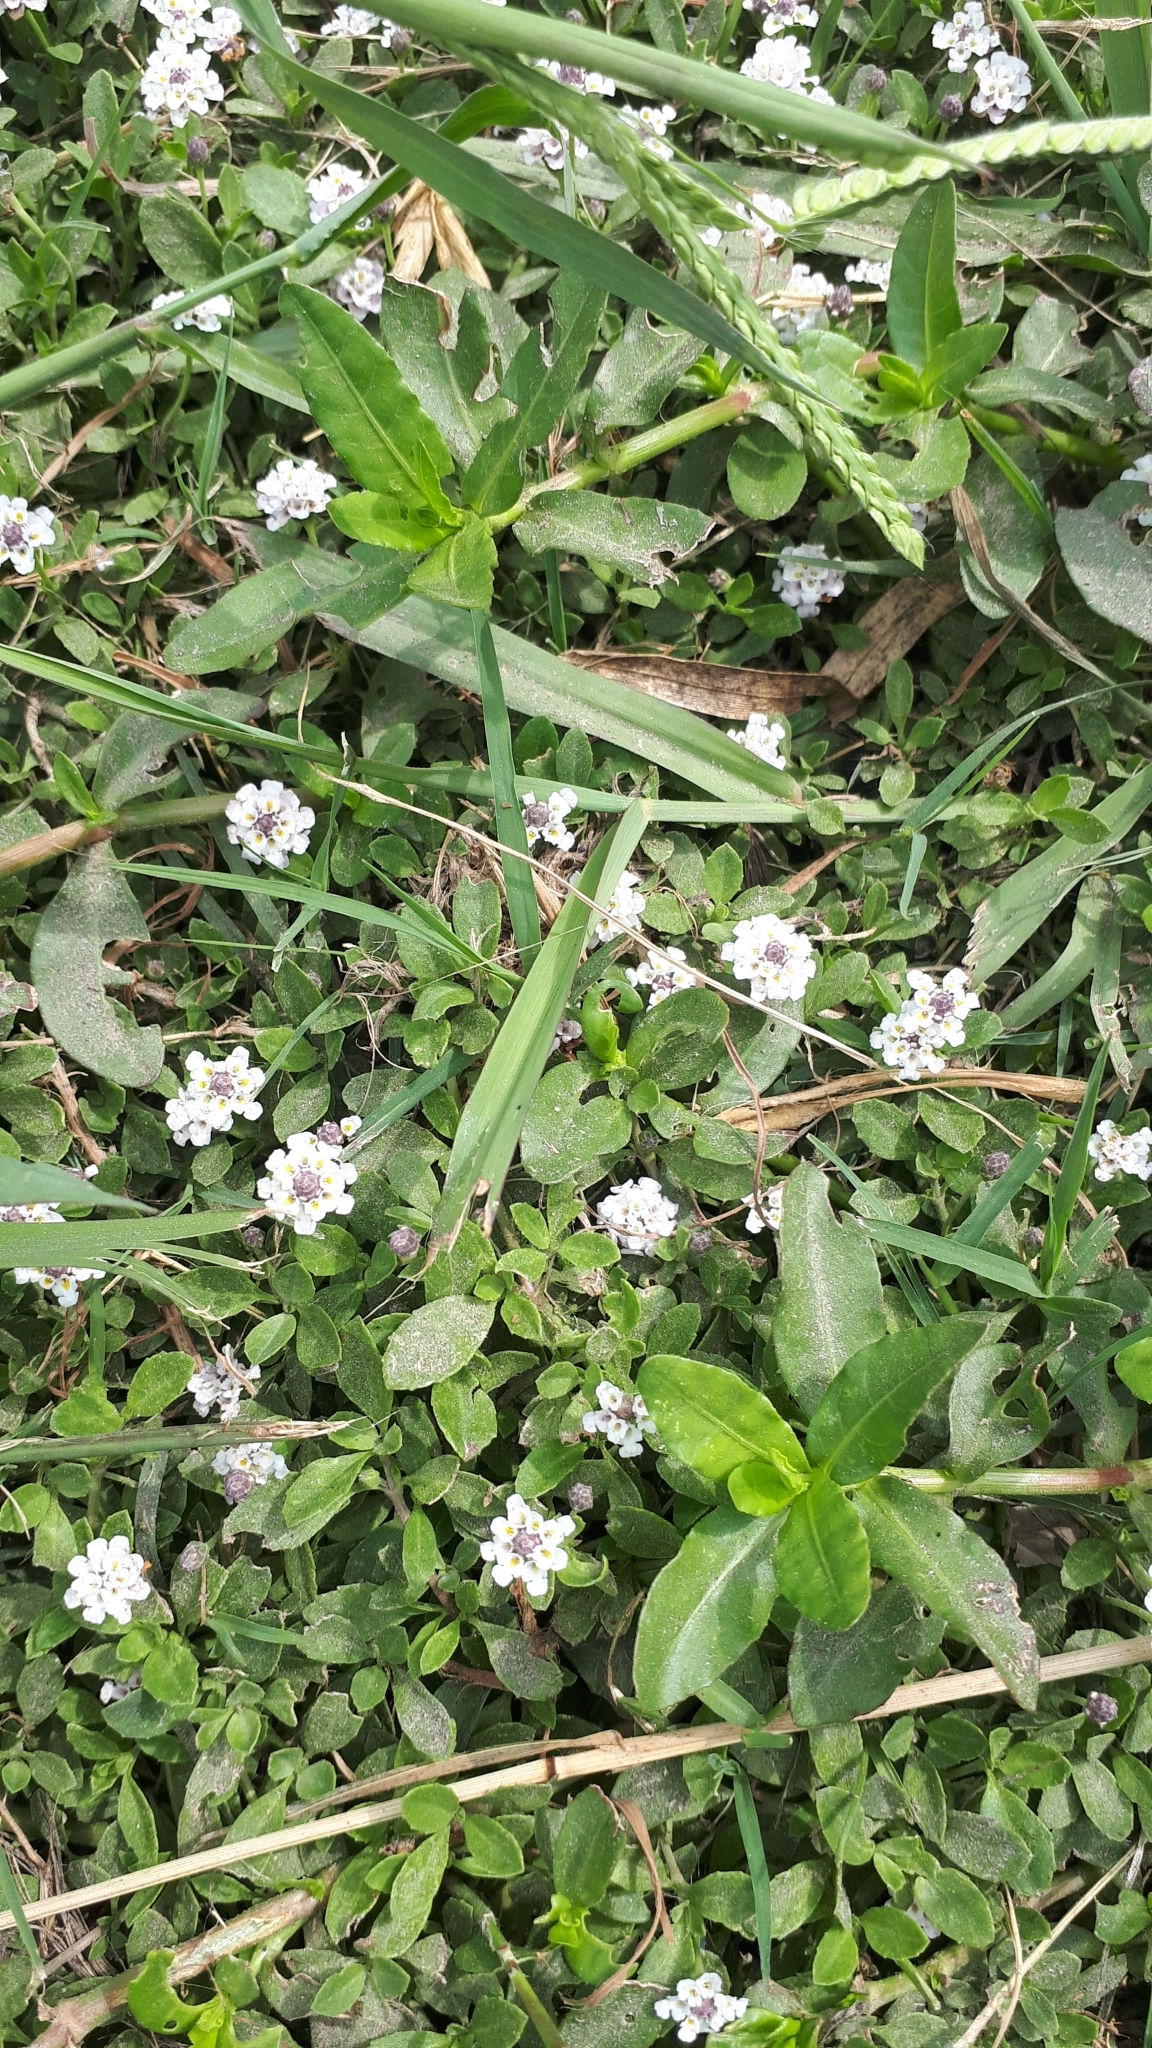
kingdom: Plantae
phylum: Tracheophyta
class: Magnoliopsida
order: Lamiales
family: Verbenaceae
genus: Phyla
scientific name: Phyla nodiflora
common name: Frogfruit
